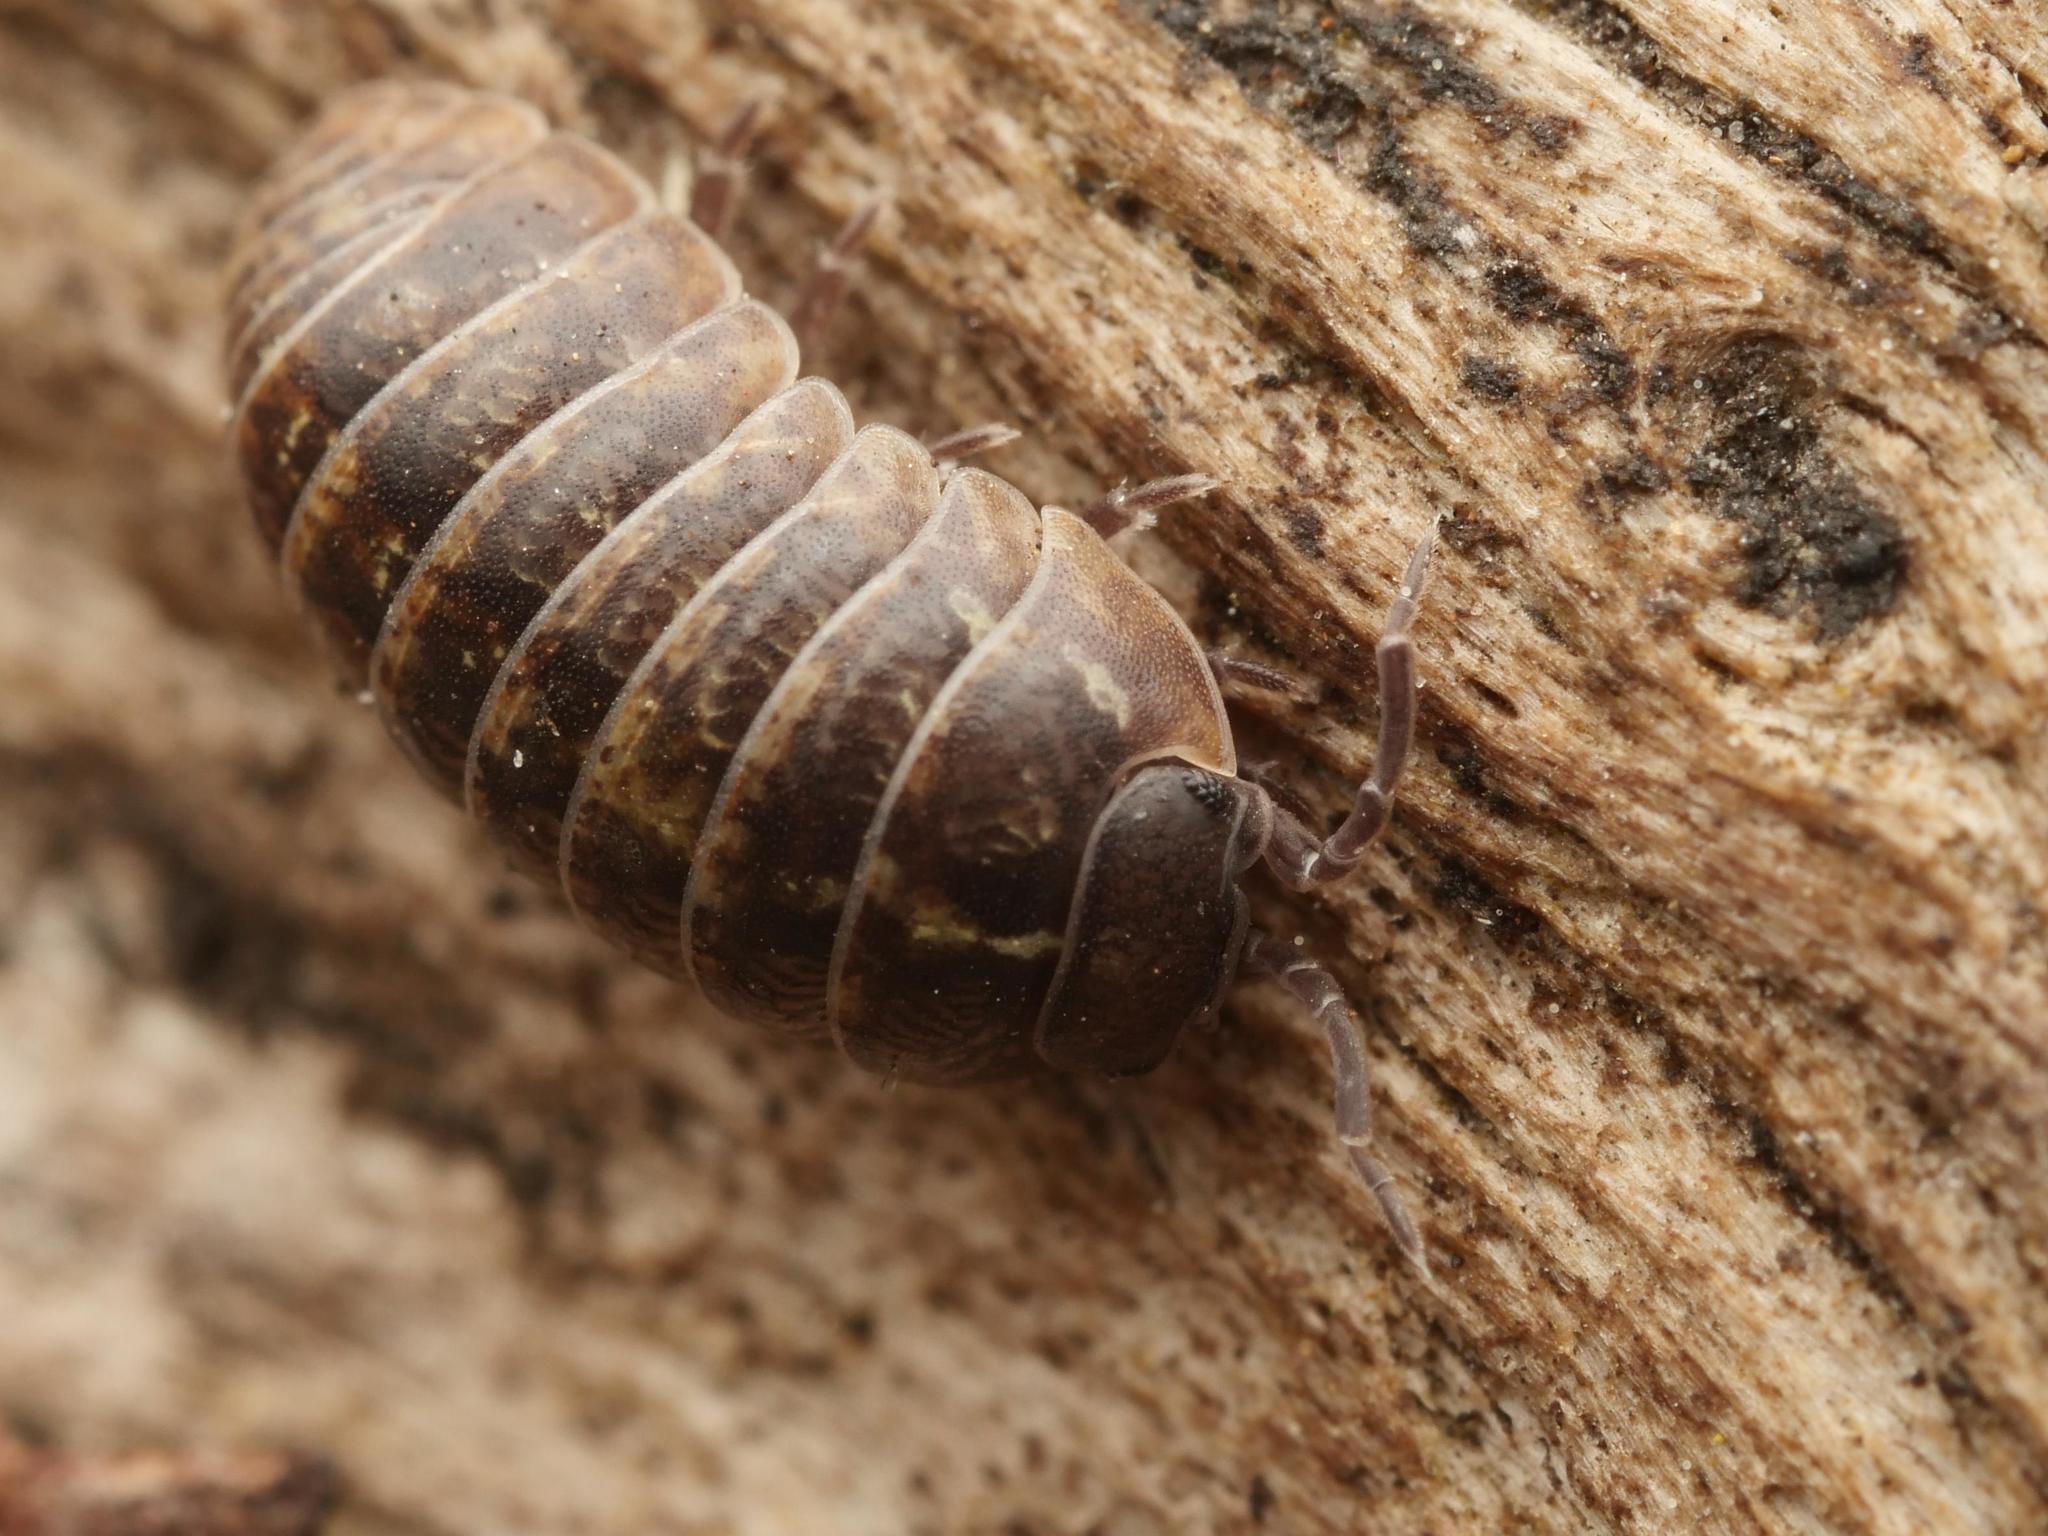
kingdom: Animalia
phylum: Arthropoda
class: Malacostraca
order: Isopoda
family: Armadillidiidae
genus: Armadillidium
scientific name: Armadillidium vulgare
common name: Common pill woodlouse
